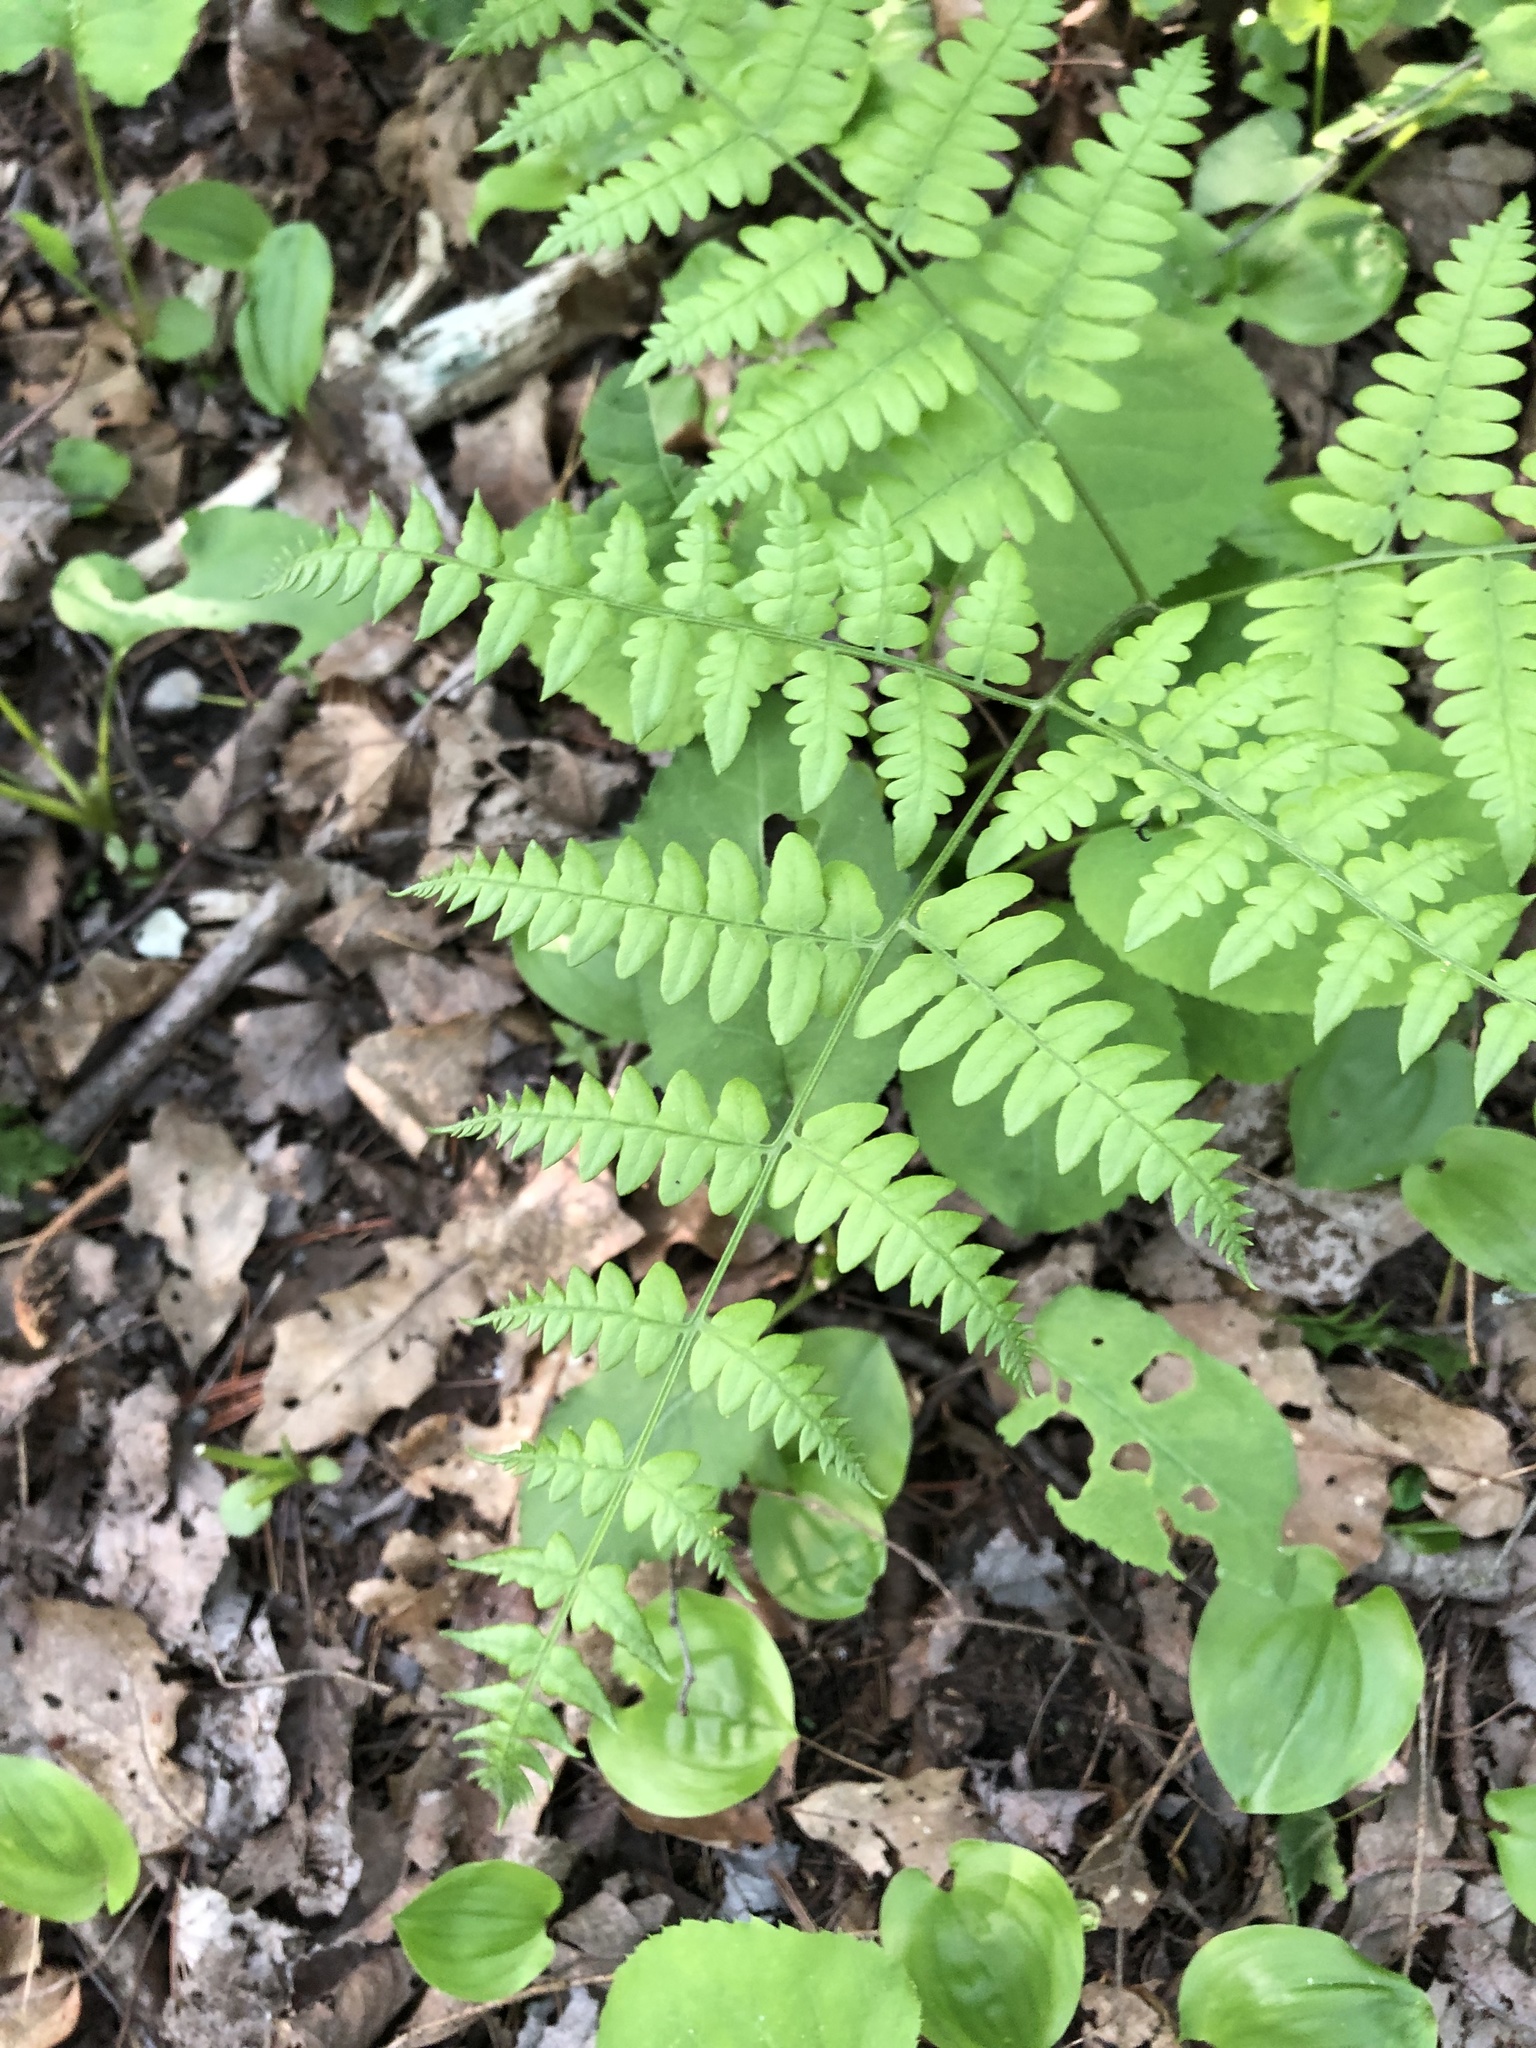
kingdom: Plantae
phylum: Tracheophyta
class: Polypodiopsida
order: Polypodiales
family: Dennstaedtiaceae
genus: Pteridium
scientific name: Pteridium aquilinum
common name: Bracken
